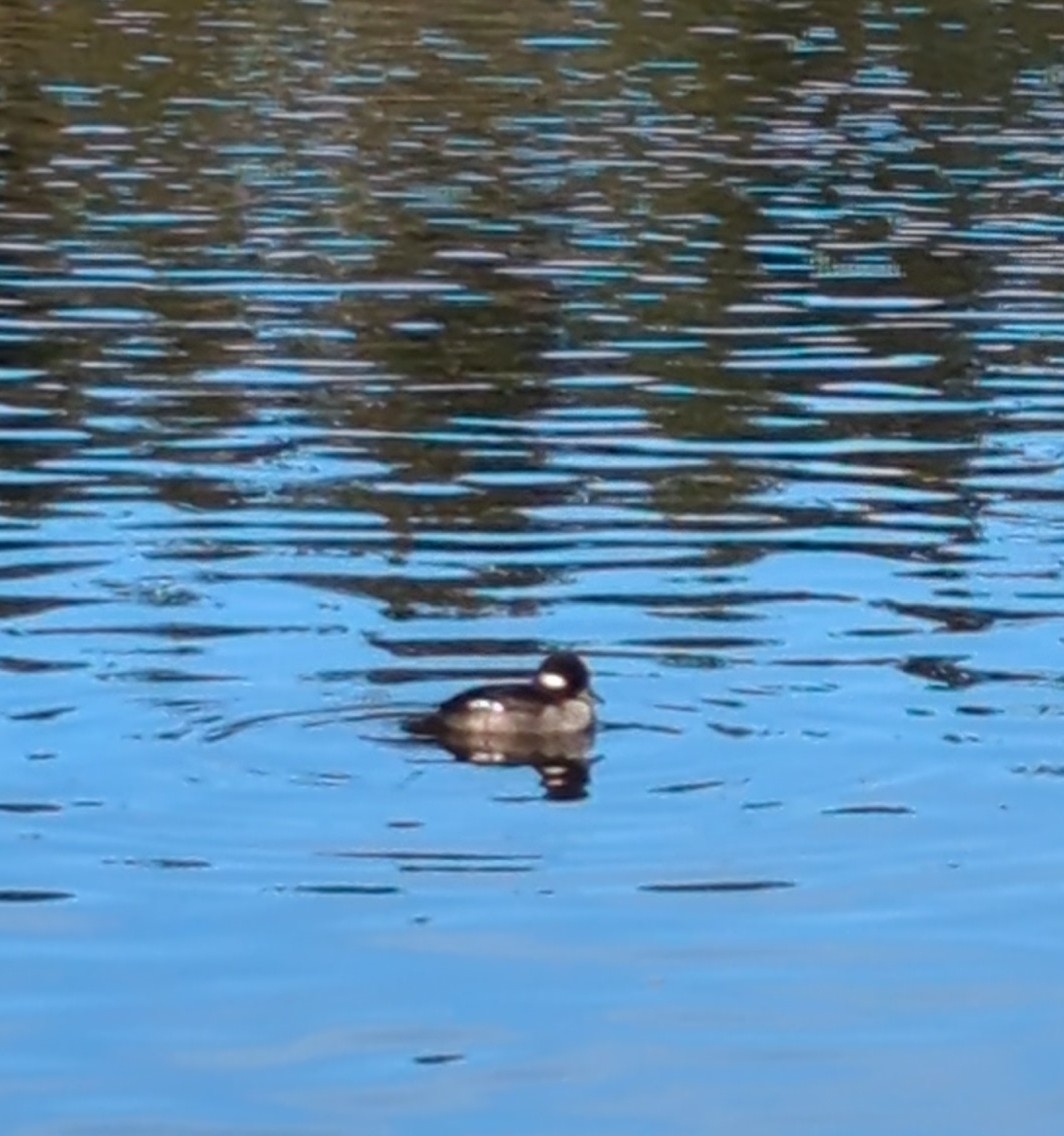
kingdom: Animalia
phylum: Chordata
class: Aves
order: Anseriformes
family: Anatidae
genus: Bucephala
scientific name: Bucephala albeola
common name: Bufflehead
